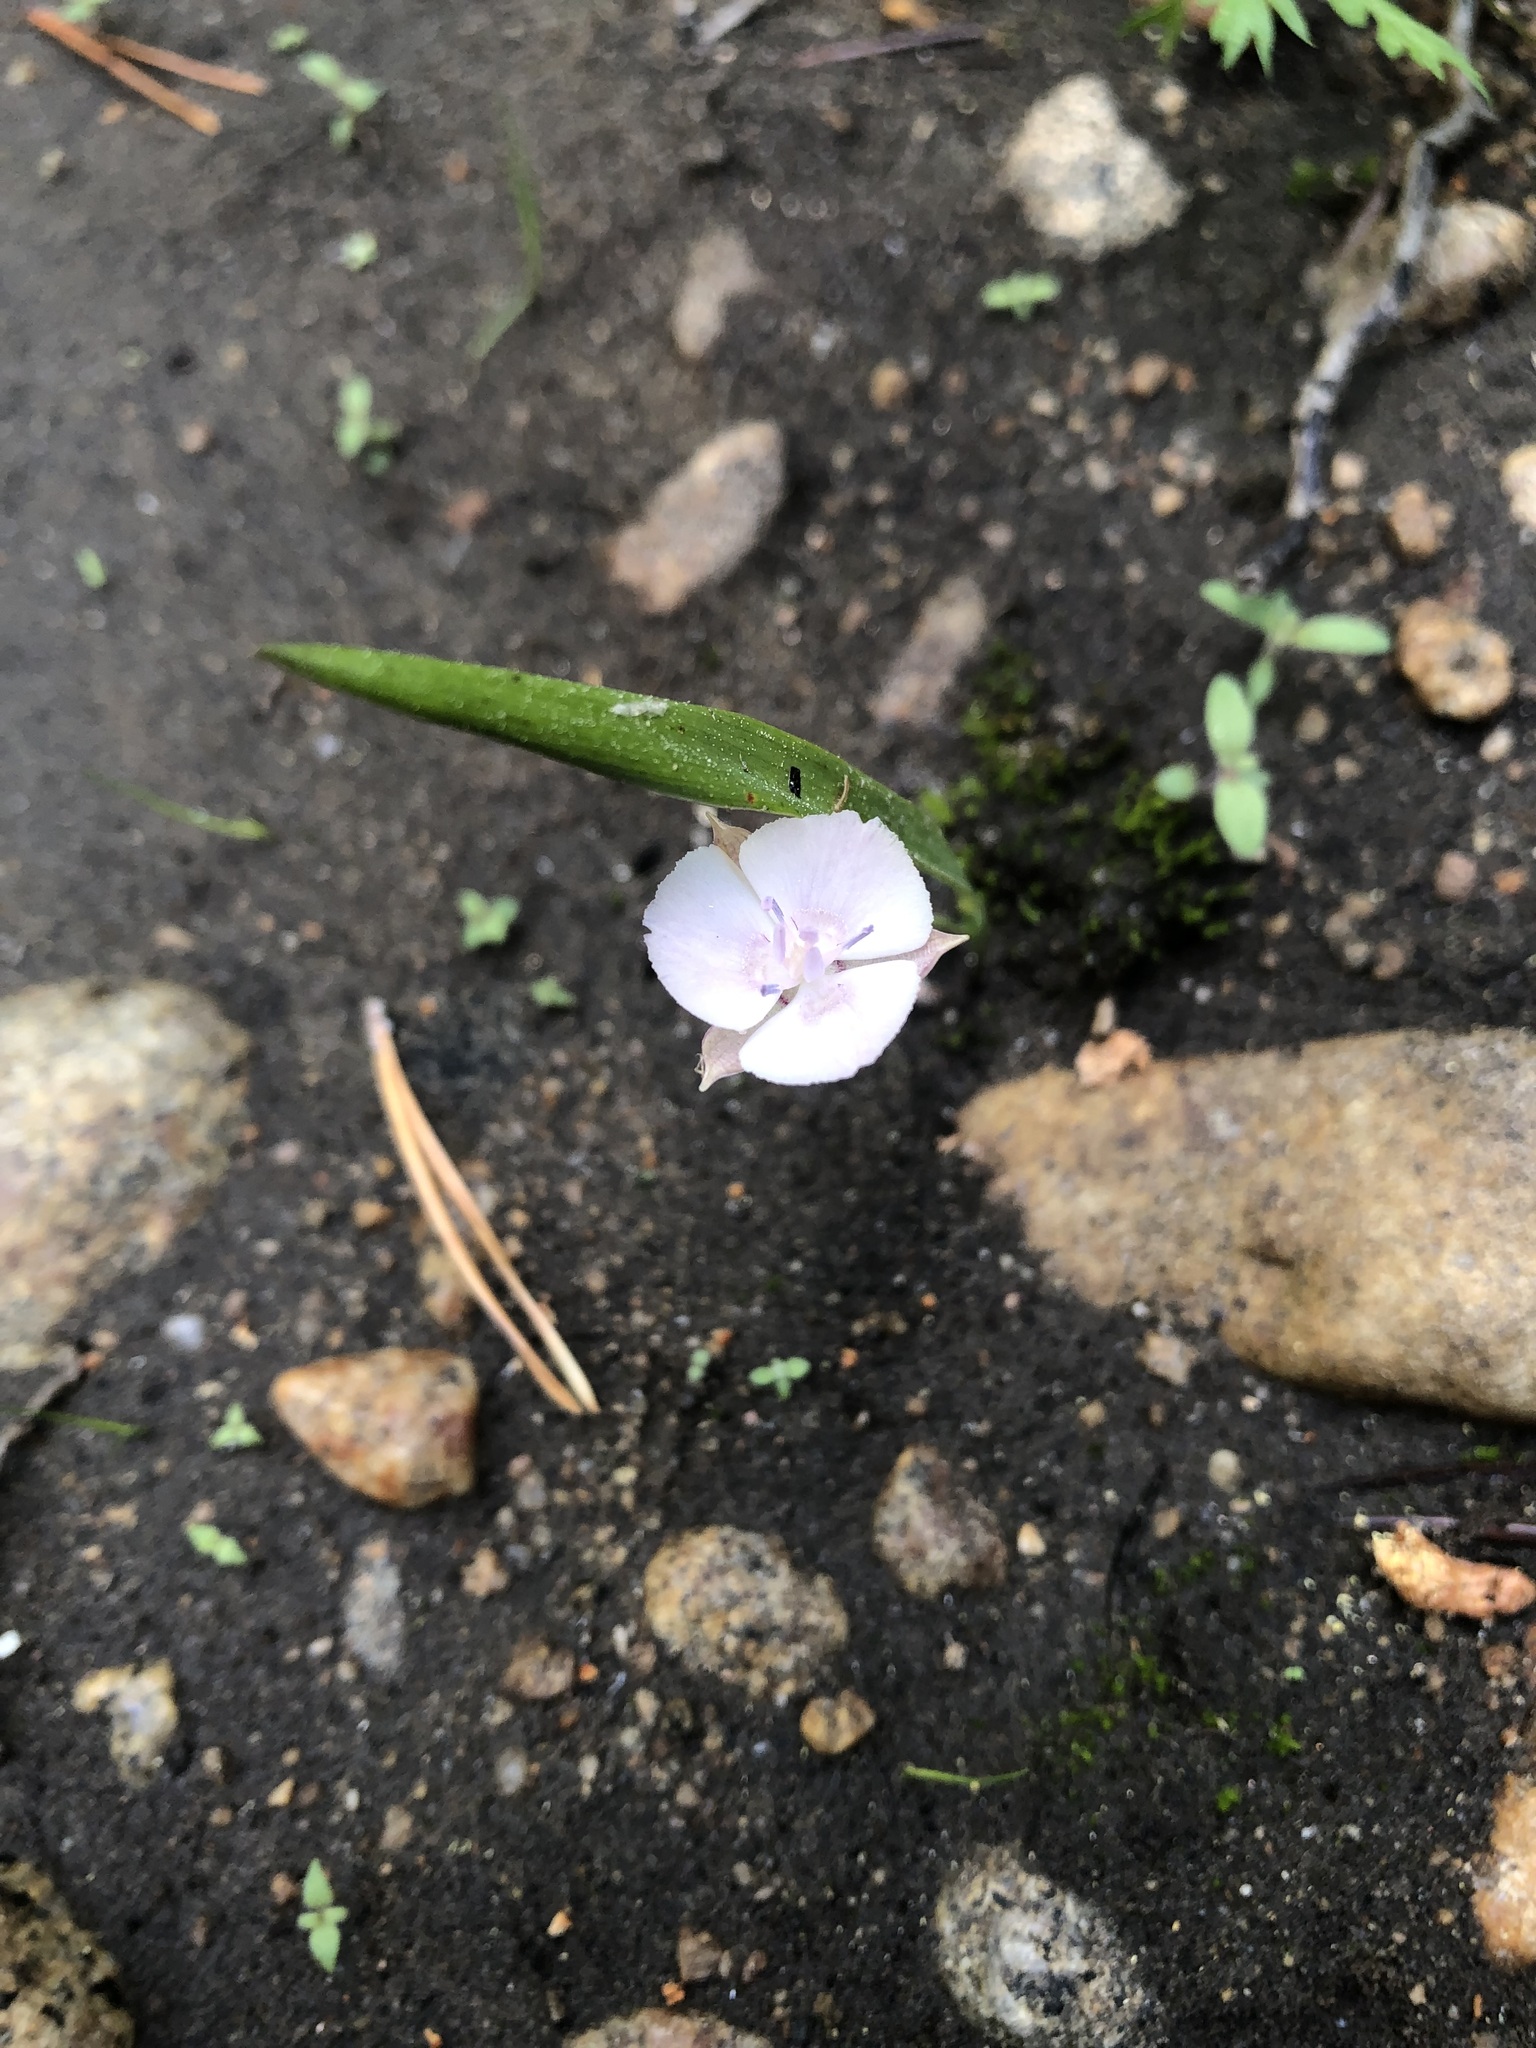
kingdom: Plantae
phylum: Tracheophyta
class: Liliopsida
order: Liliales
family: Liliaceae
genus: Calochortus
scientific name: Calochortus minimus
